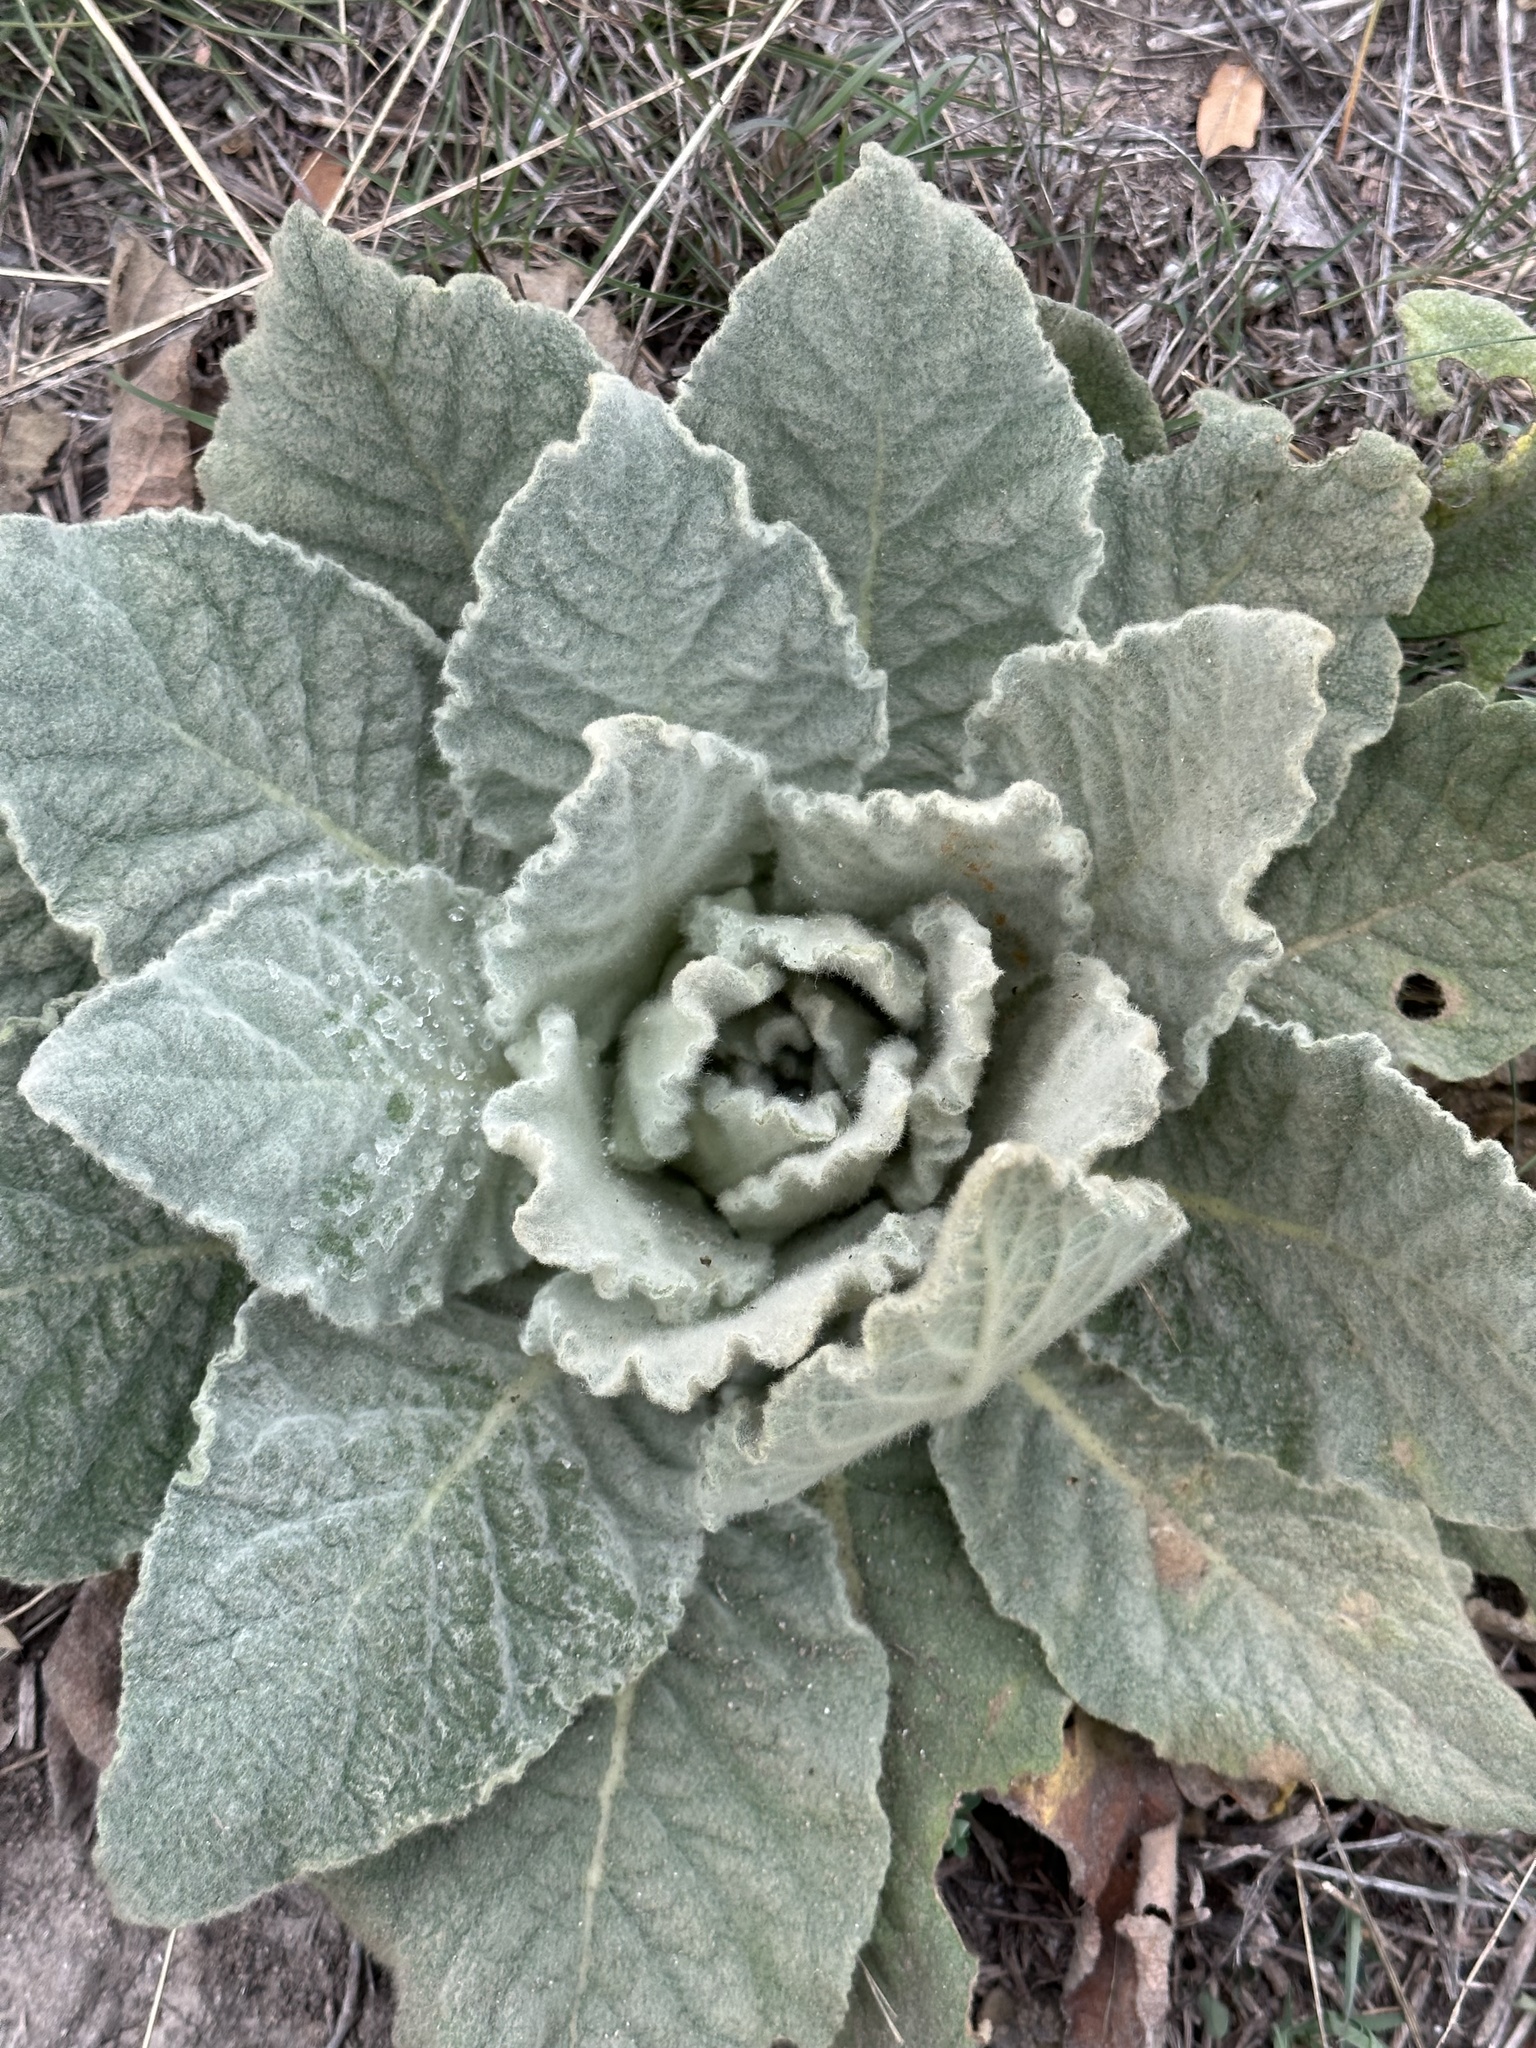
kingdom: Plantae
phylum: Tracheophyta
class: Magnoliopsida
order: Lamiales
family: Scrophulariaceae
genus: Verbascum
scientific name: Verbascum thapsus
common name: Common mullein
